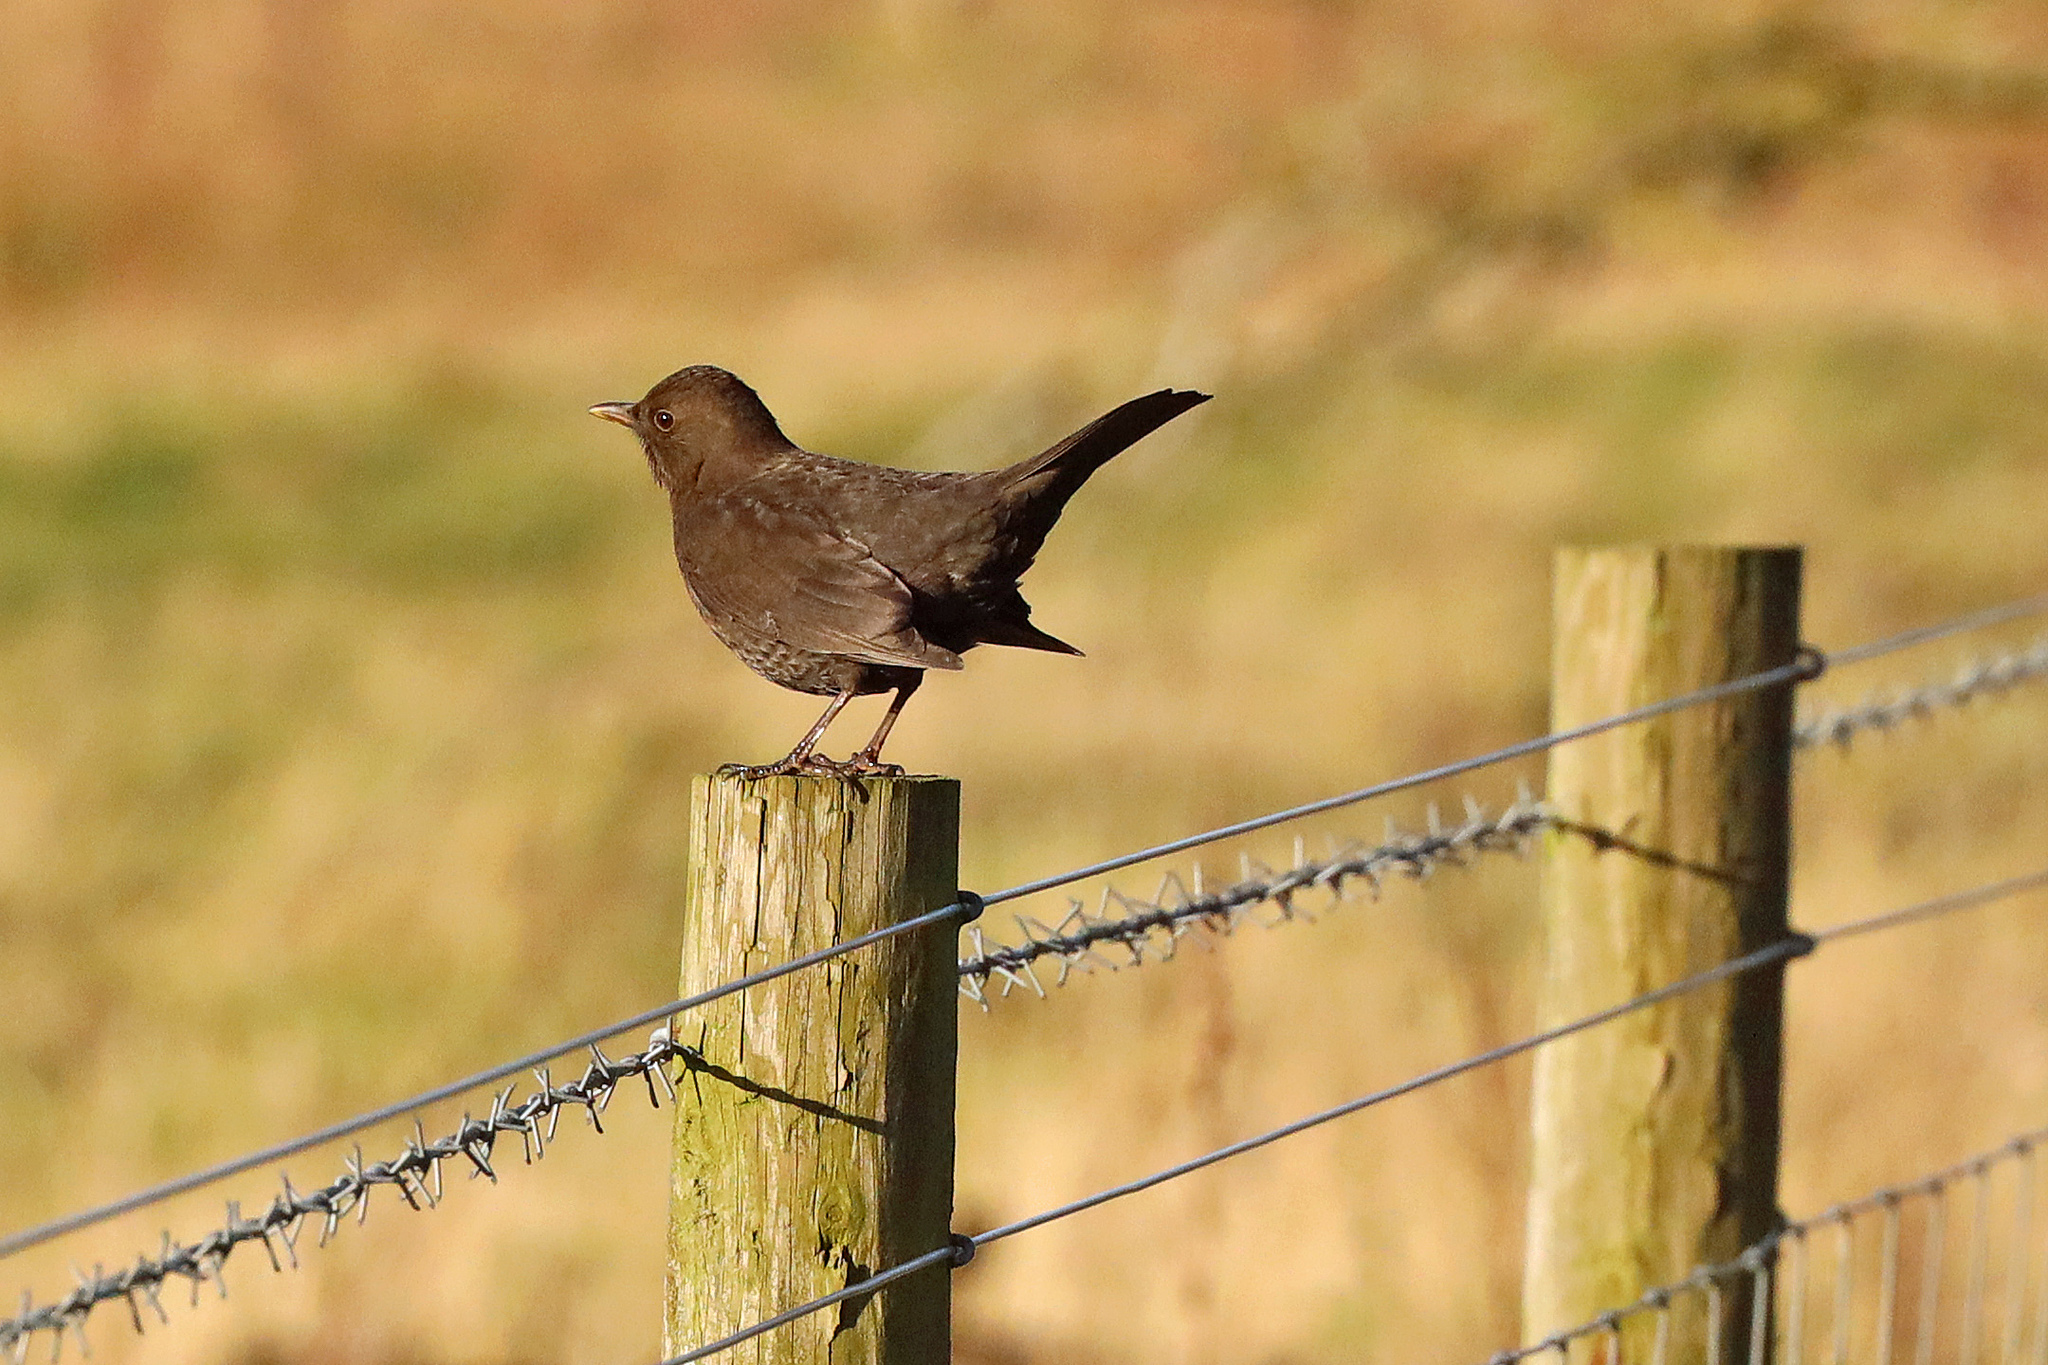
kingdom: Animalia
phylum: Chordata
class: Aves
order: Passeriformes
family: Turdidae
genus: Turdus
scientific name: Turdus merula
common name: Common blackbird
